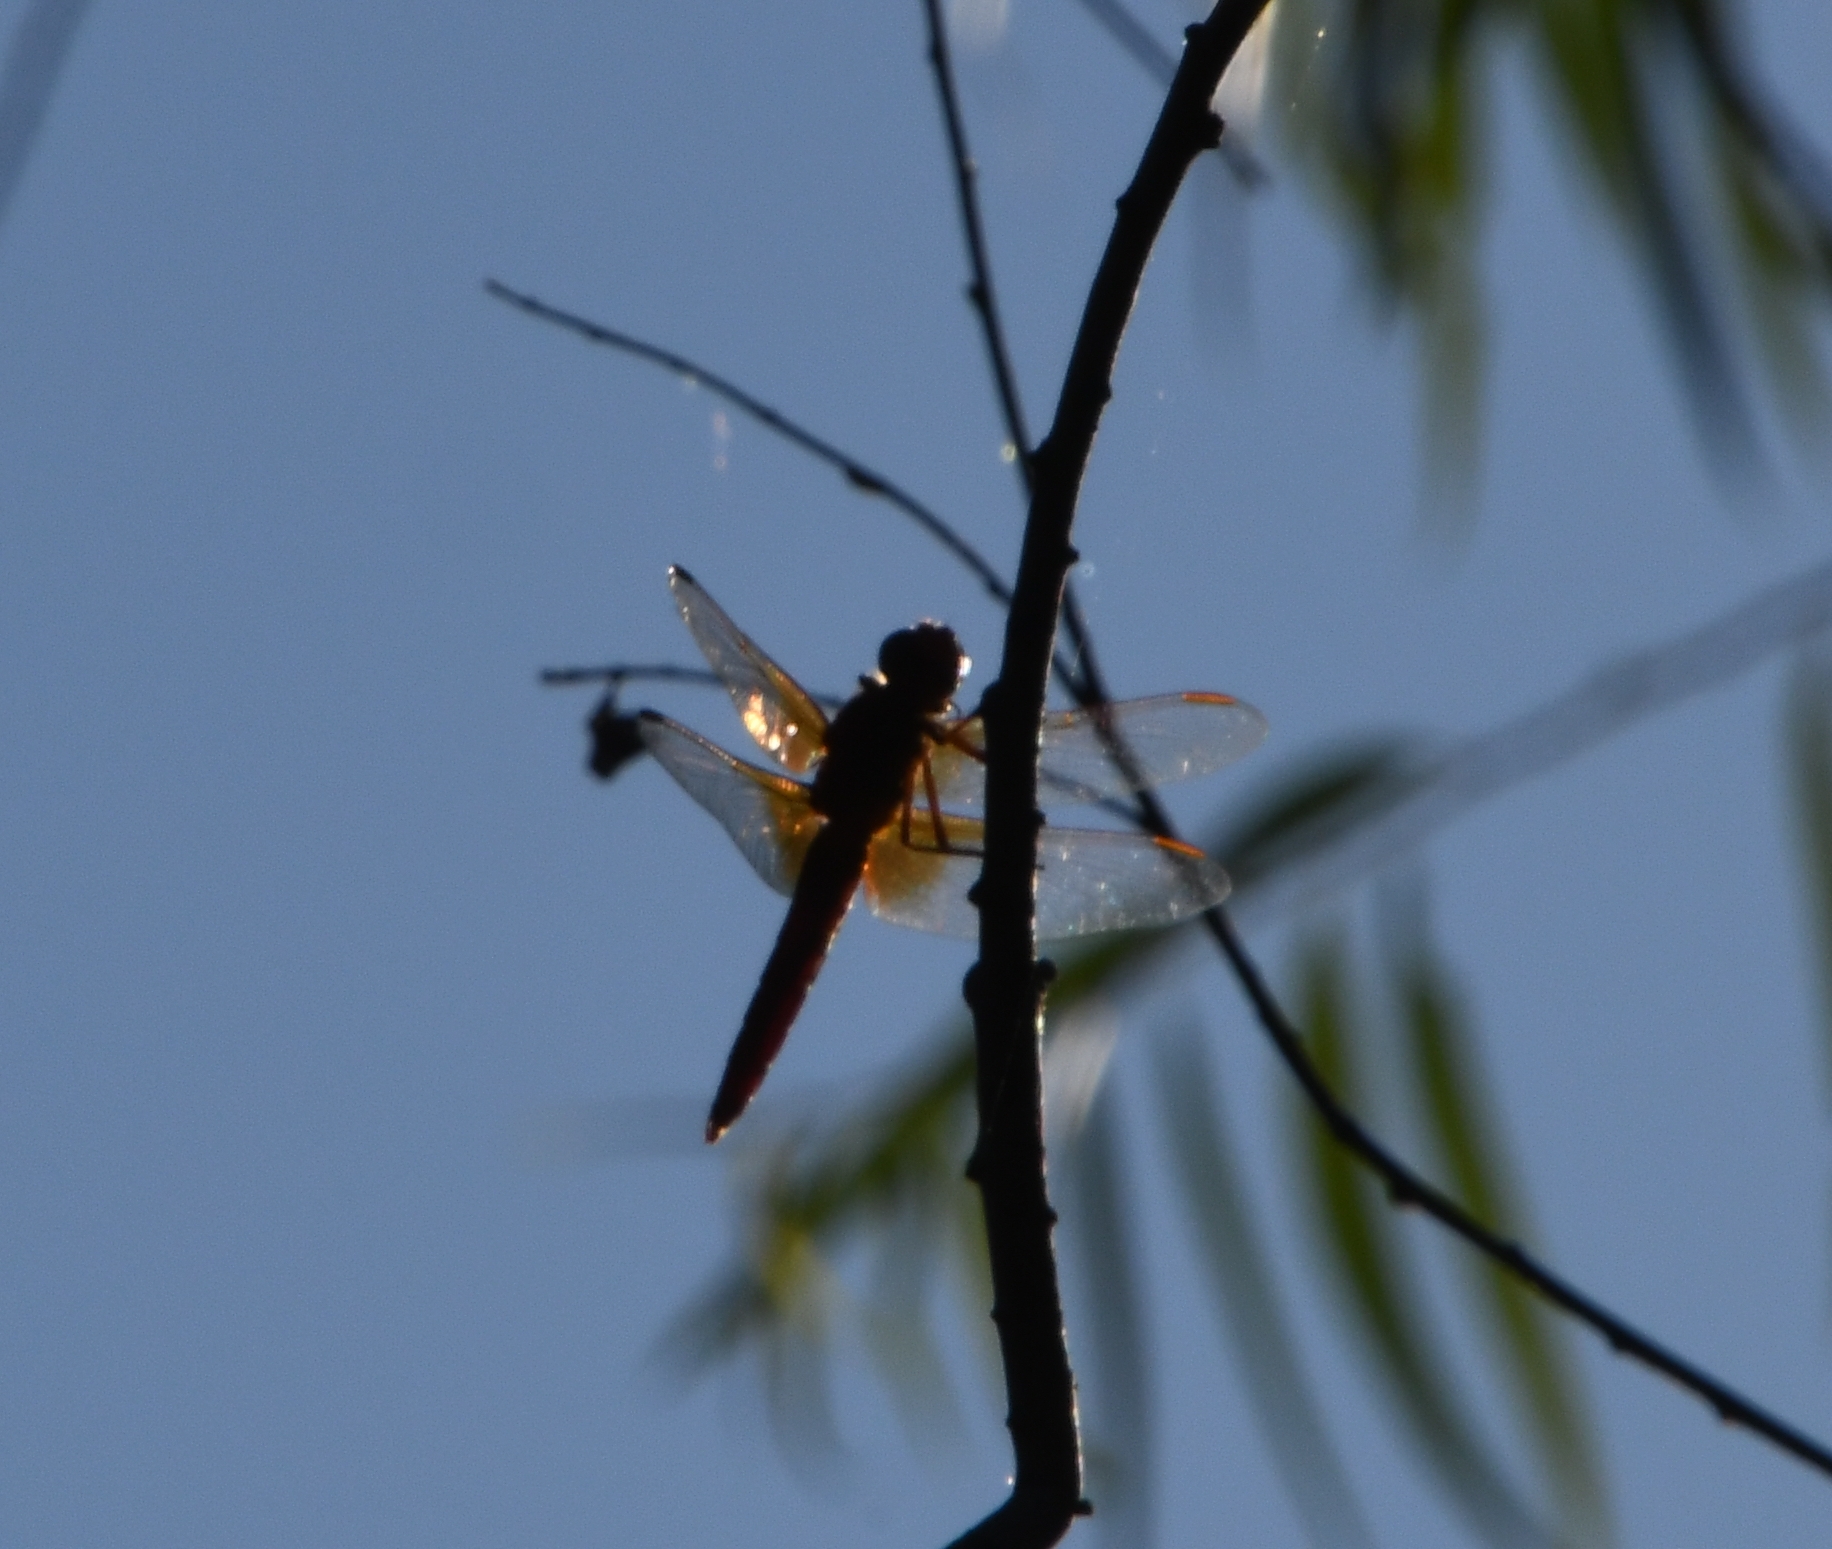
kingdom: Animalia
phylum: Arthropoda
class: Insecta
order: Odonata
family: Libellulidae
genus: Libellula
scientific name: Libellula croceipennis
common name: Neon skimmer
